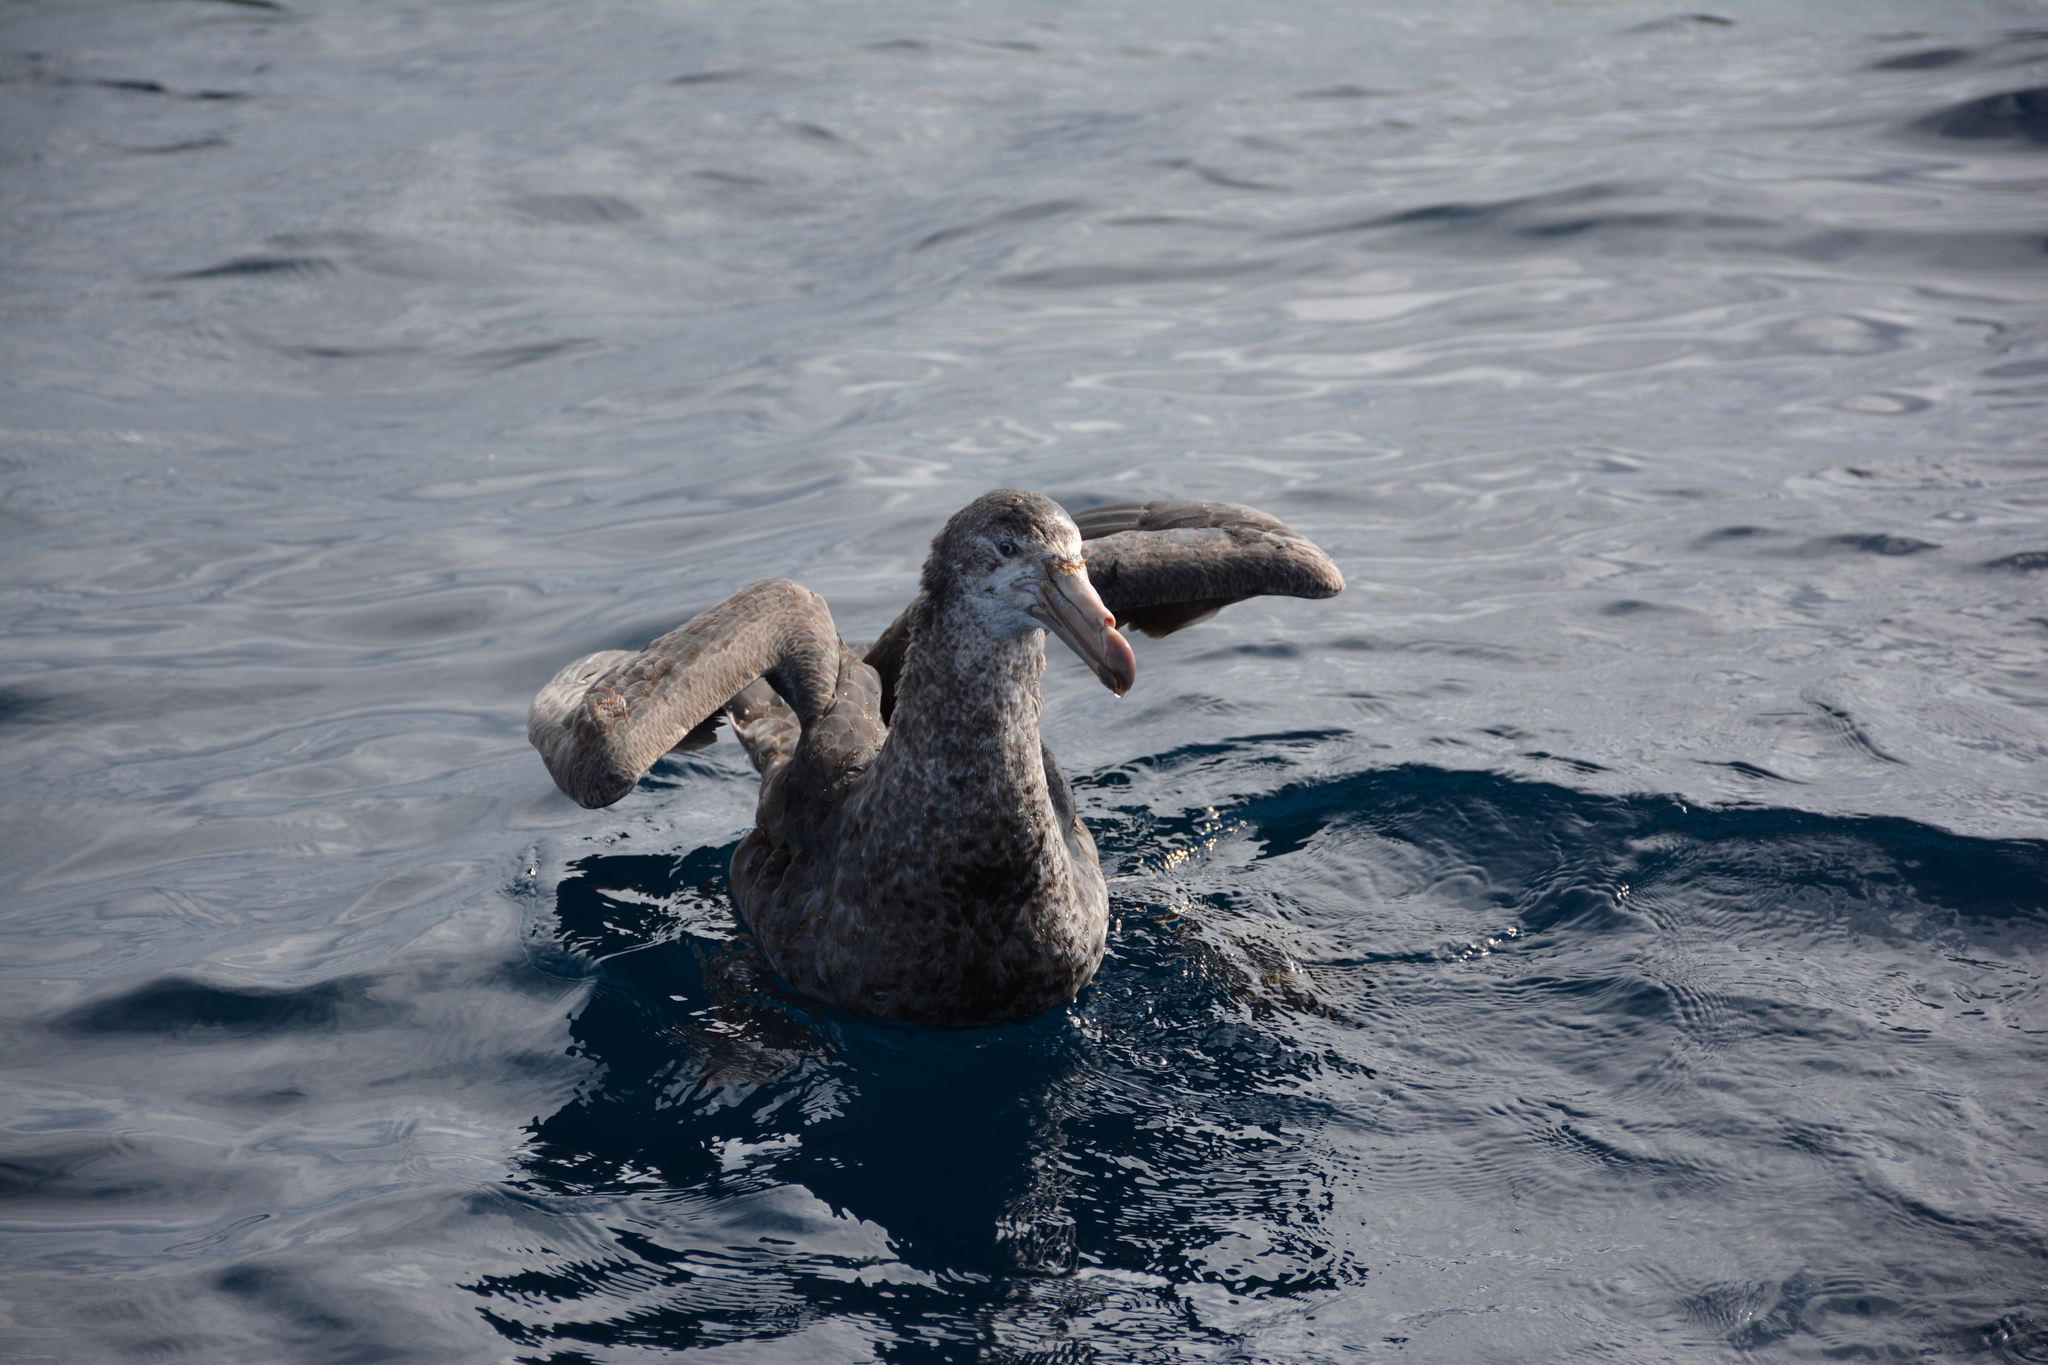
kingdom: Animalia
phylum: Chordata
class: Aves
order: Procellariiformes
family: Procellariidae
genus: Macronectes
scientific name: Macronectes halli
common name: Northern giant petrel
